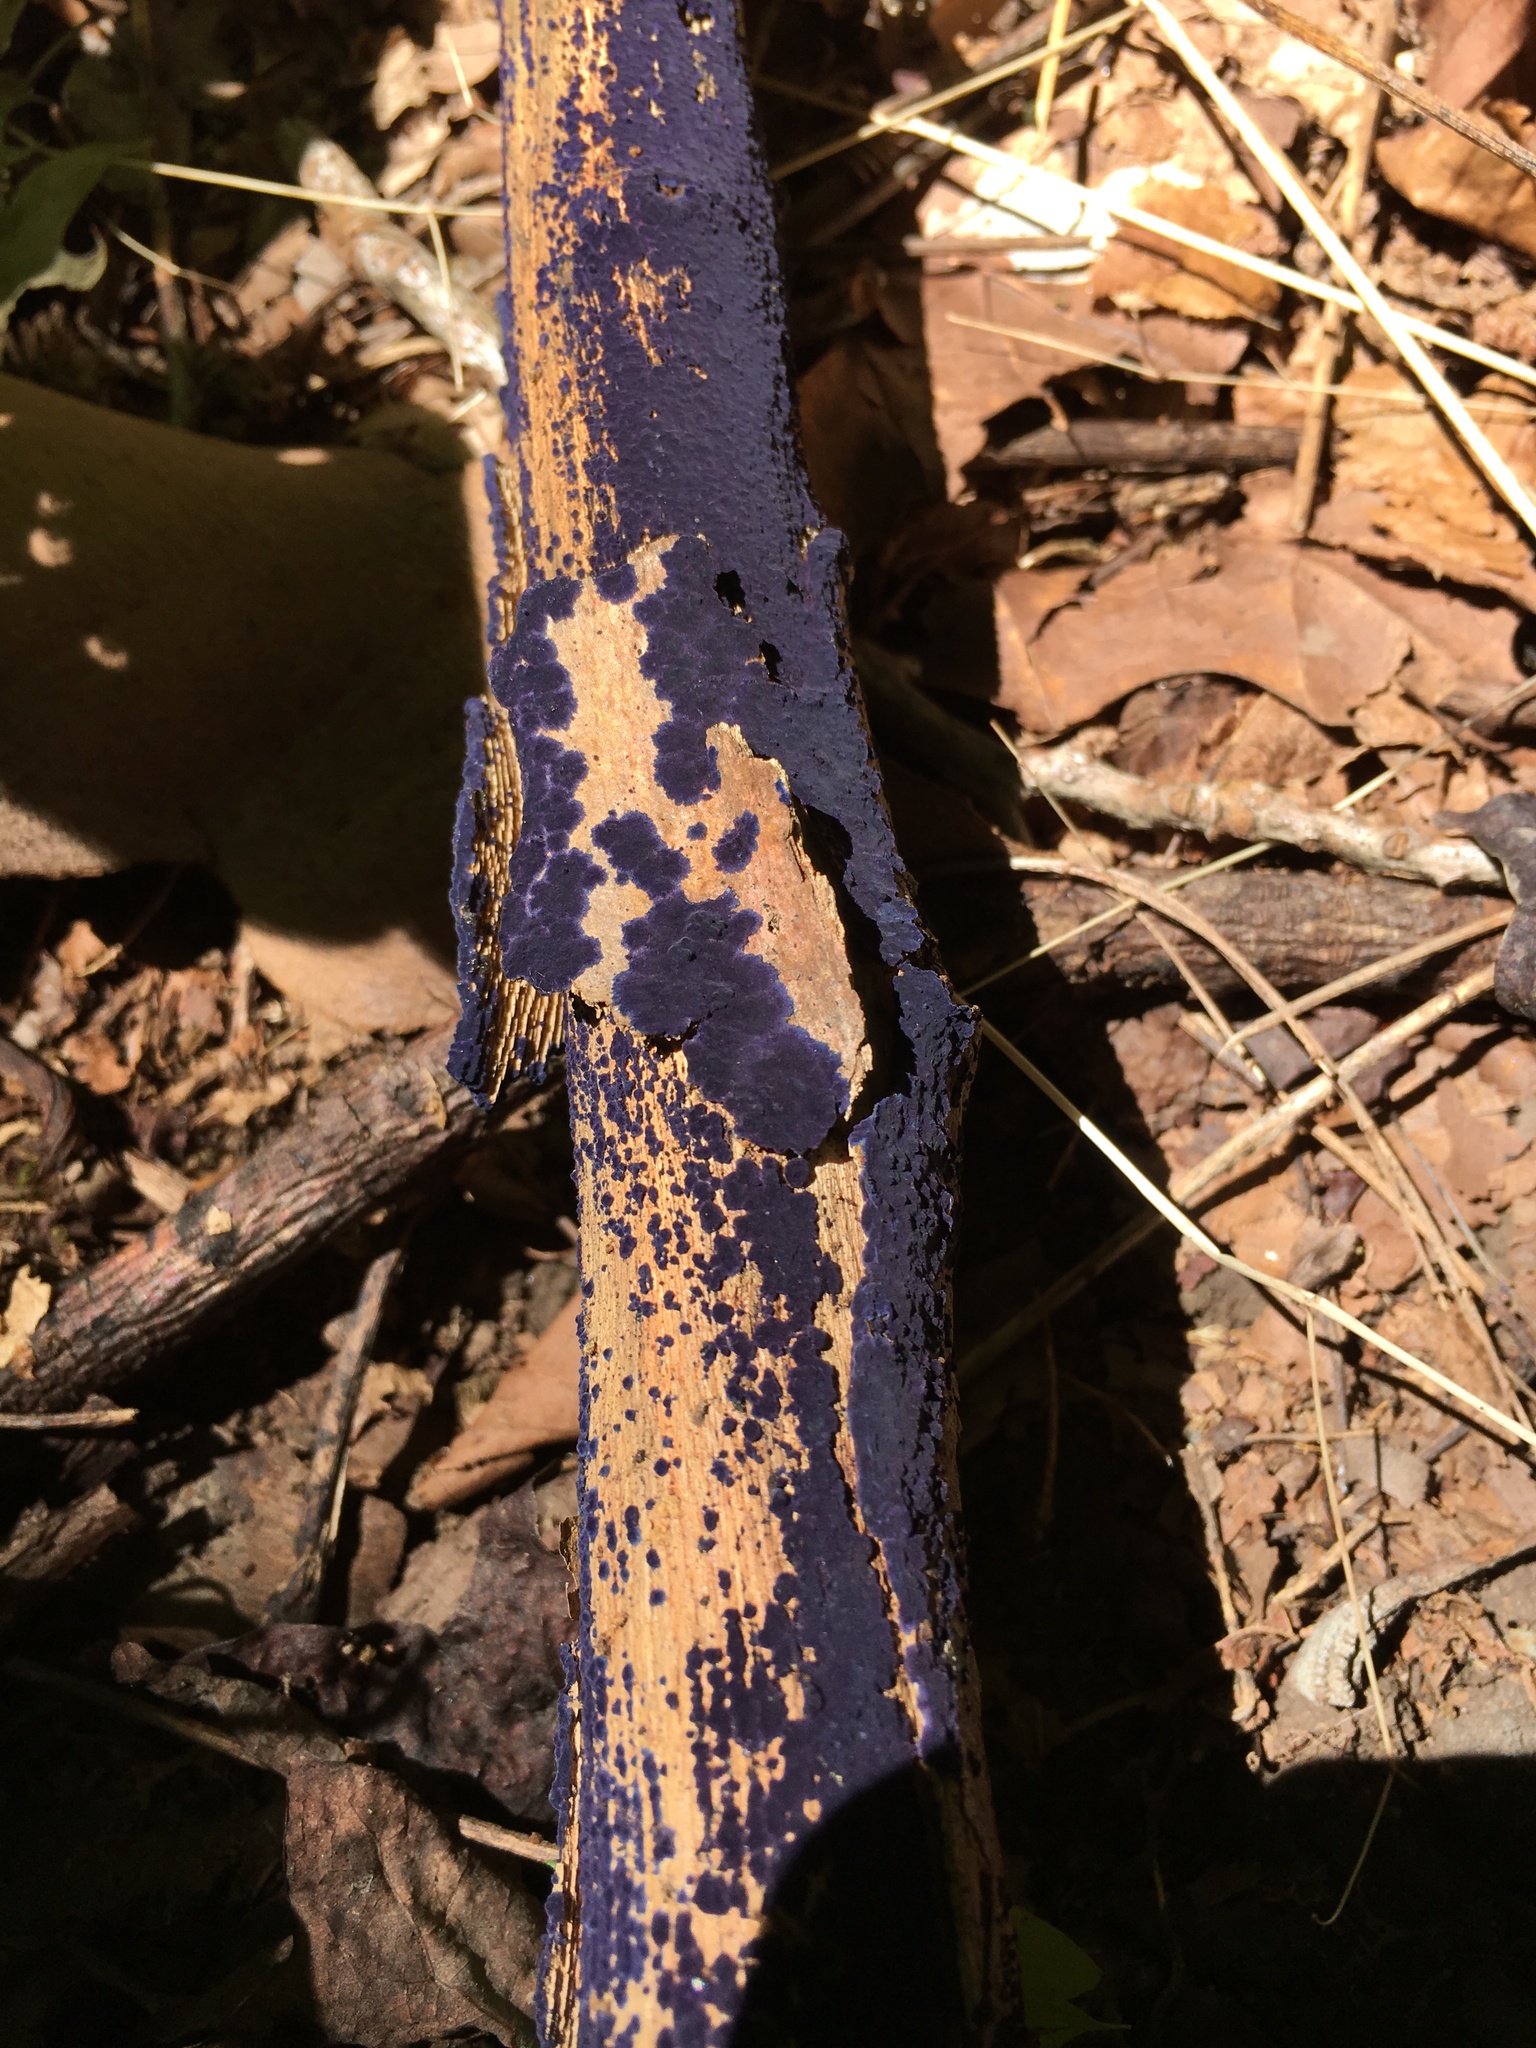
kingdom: Fungi
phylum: Basidiomycota
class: Agaricomycetes
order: Polyporales
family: Phanerochaetaceae
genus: Terana
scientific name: Terana coerulea
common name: Cobalt crust
